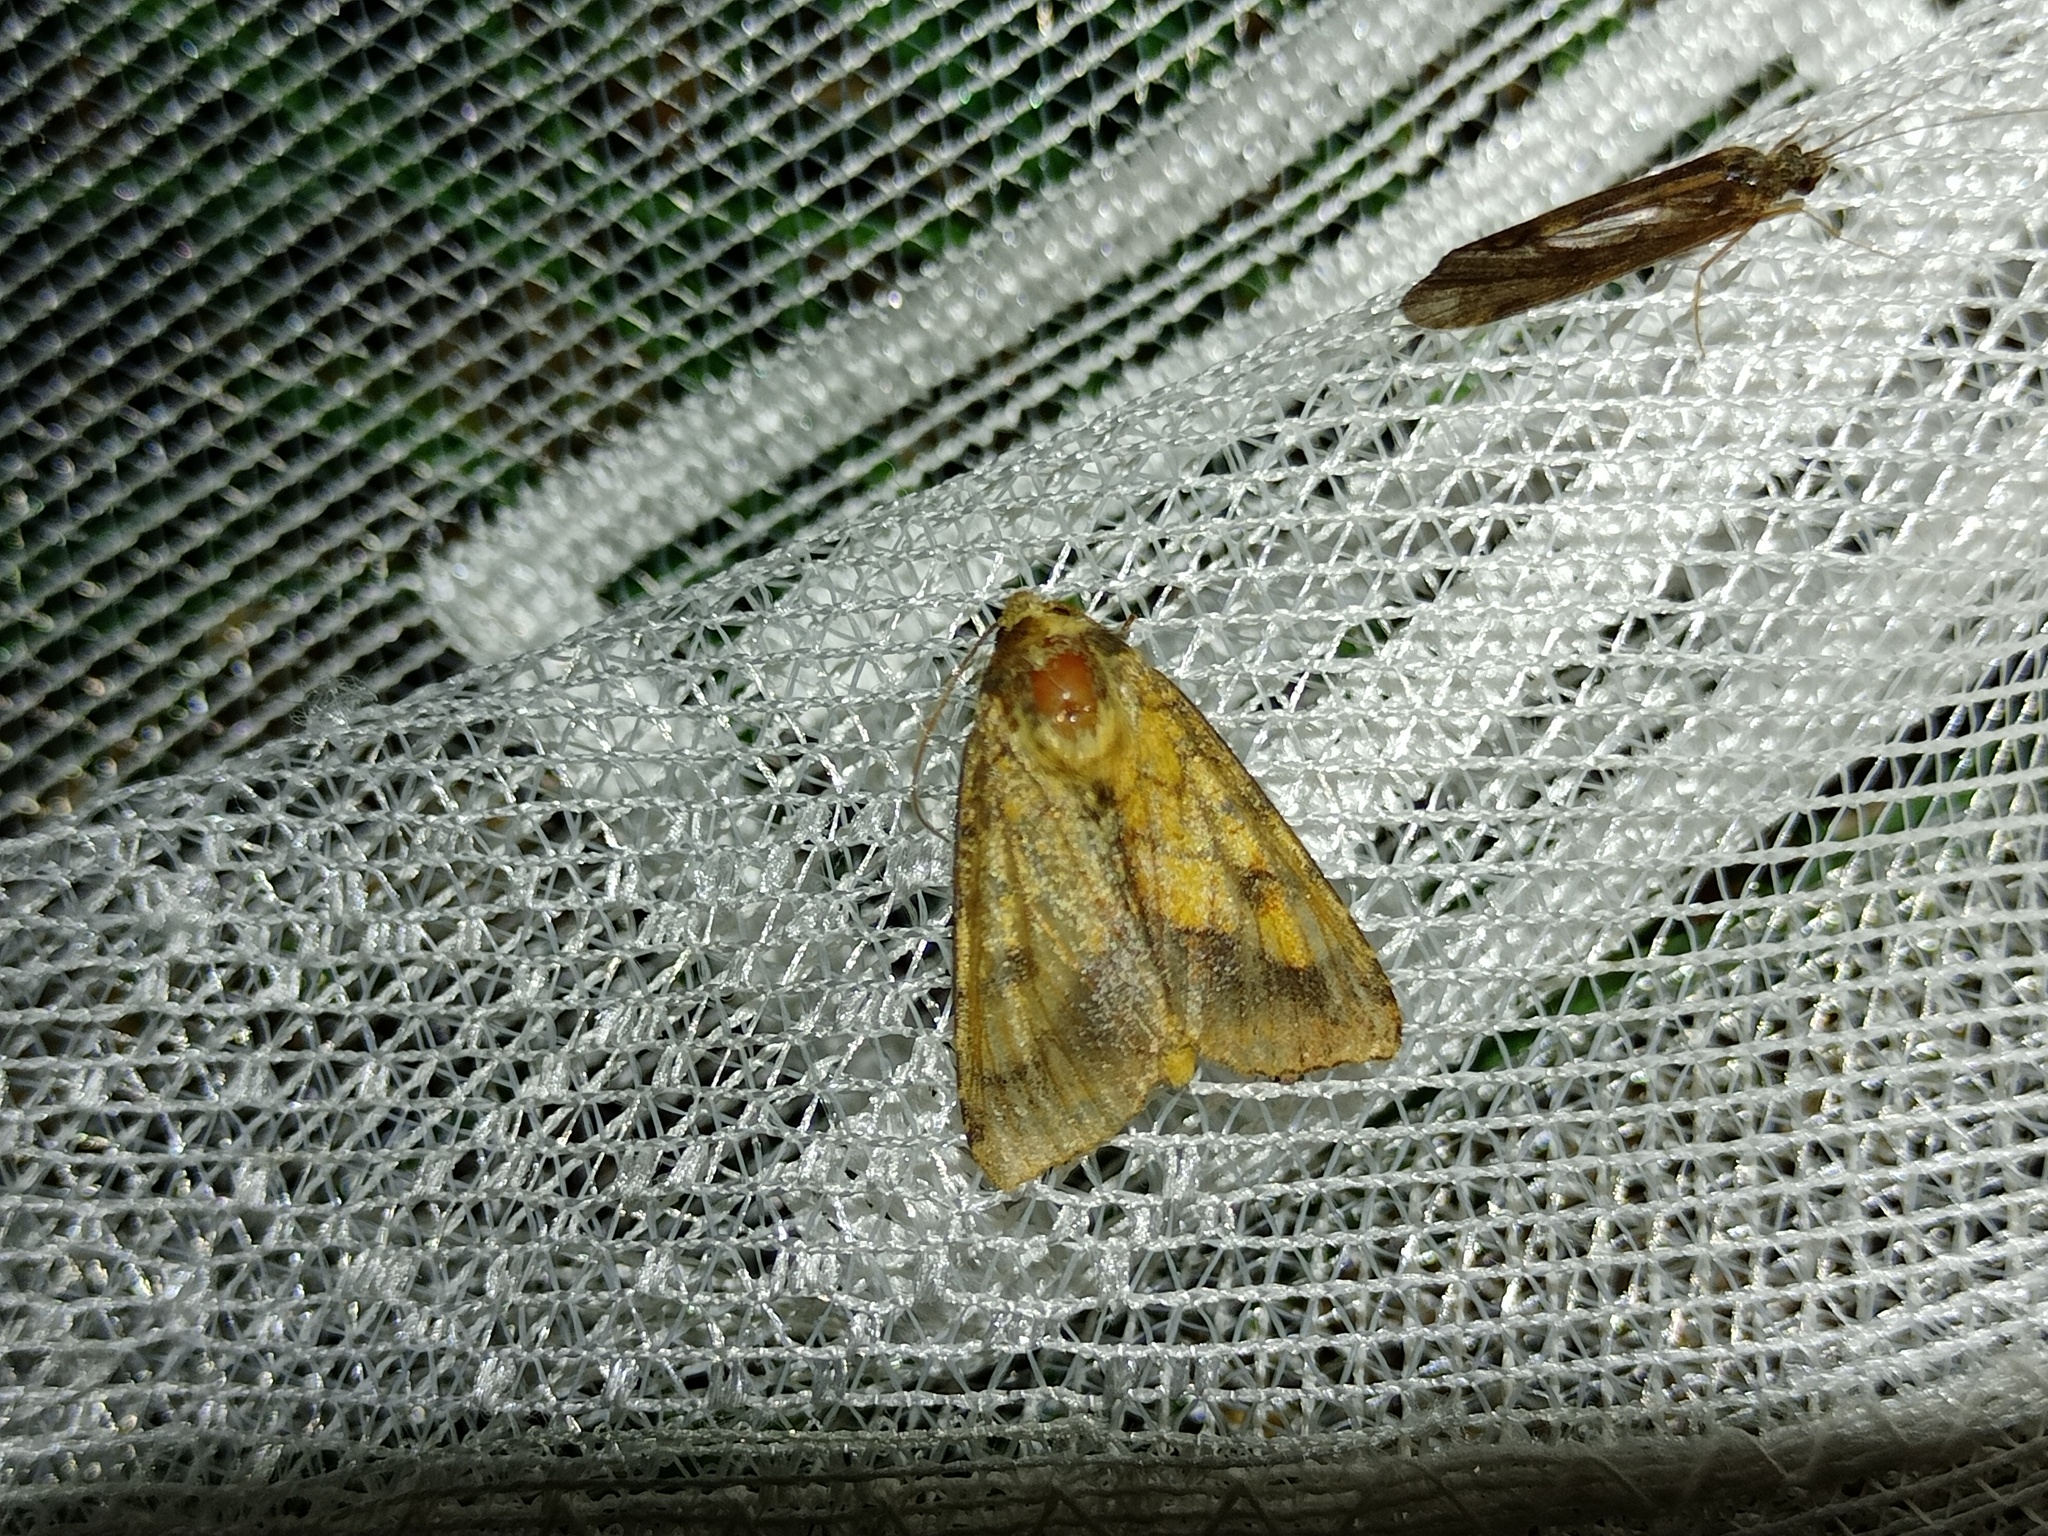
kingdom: Animalia
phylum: Arthropoda
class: Insecta
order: Lepidoptera
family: Noctuidae
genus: Pyrrhia
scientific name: Pyrrhia umbra
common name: Bordered sallow
